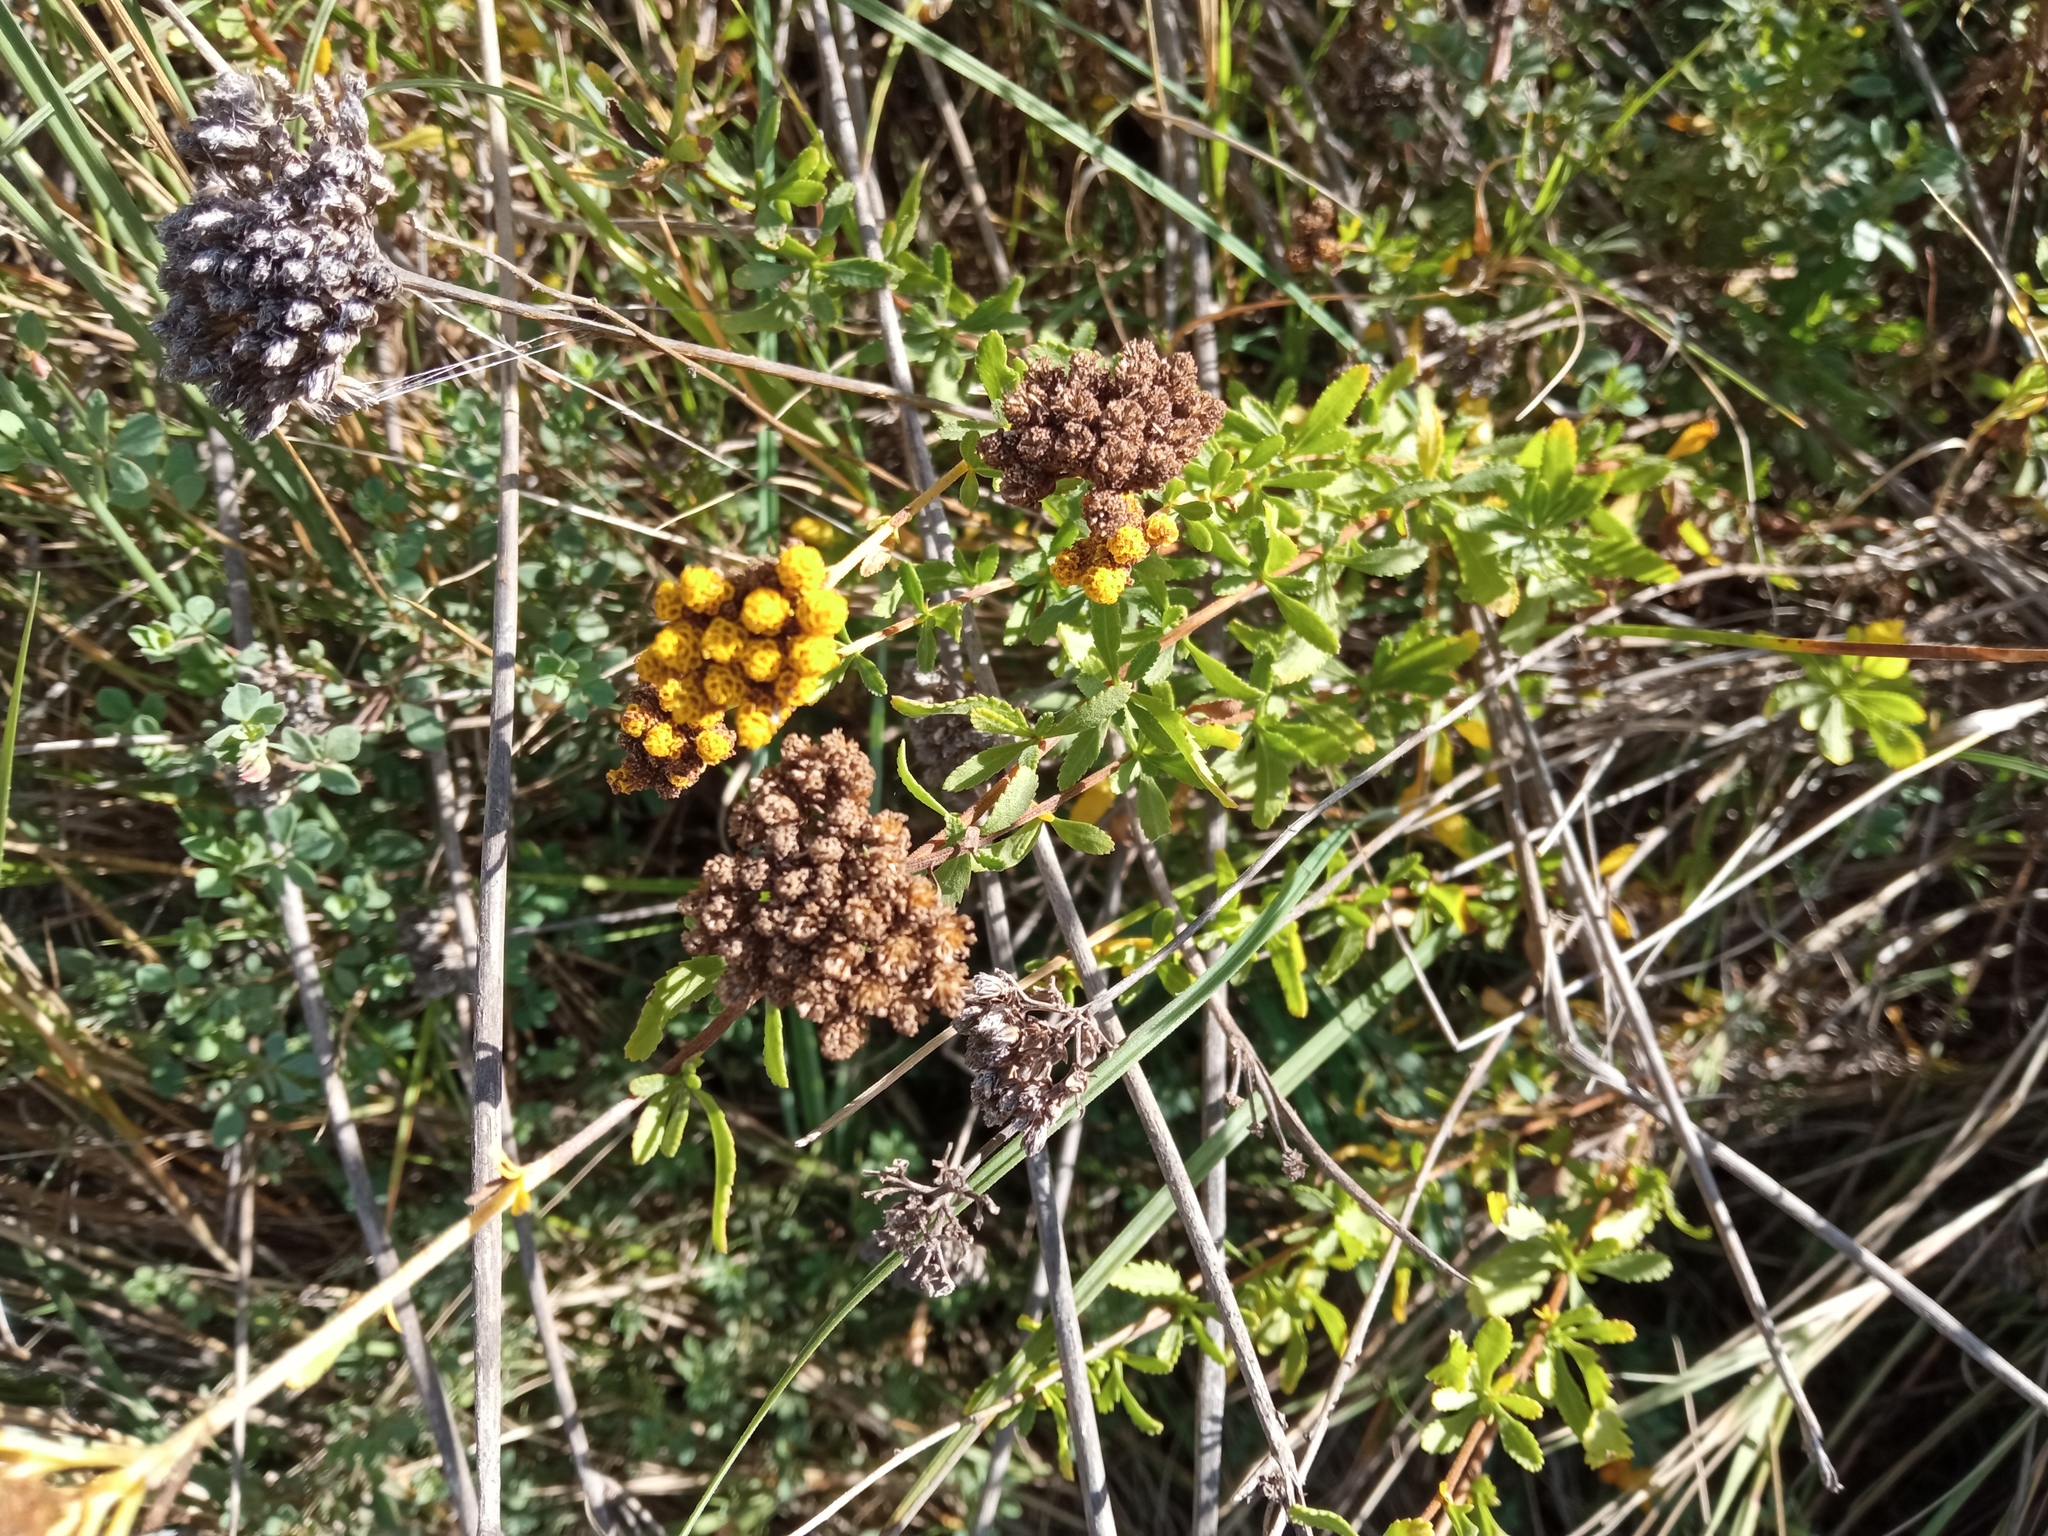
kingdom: Plantae
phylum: Tracheophyta
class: Magnoliopsida
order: Asterales
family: Asteraceae
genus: Achillea
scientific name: Achillea ageratum
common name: Sweet-nancy
